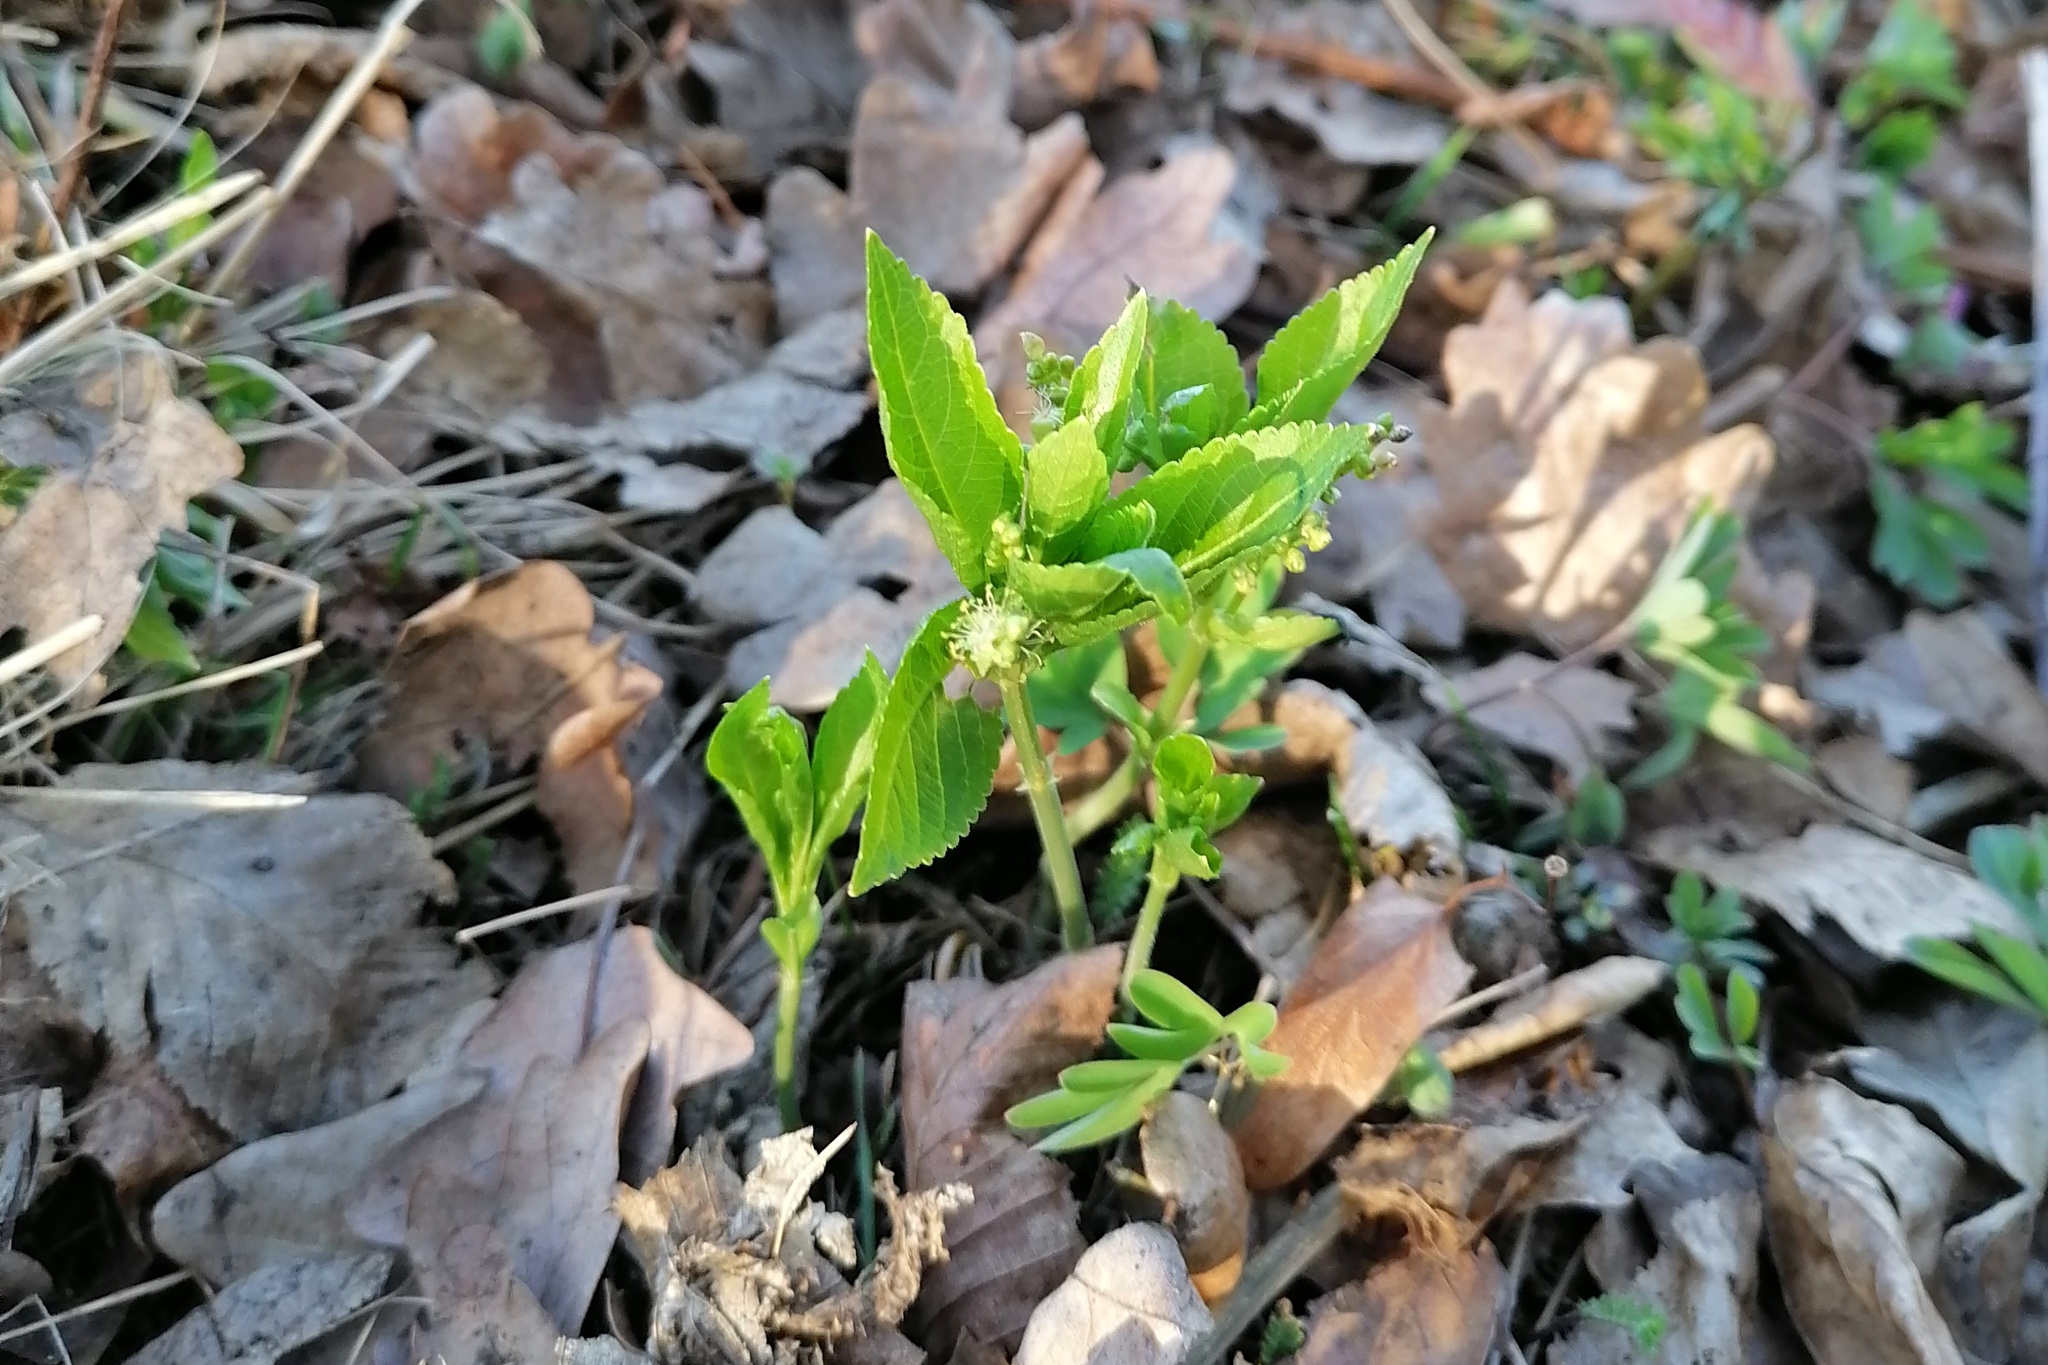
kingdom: Plantae
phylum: Tracheophyta
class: Magnoliopsida
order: Malpighiales
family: Euphorbiaceae
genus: Mercurialis
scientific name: Mercurialis perennis
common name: Dog mercury
